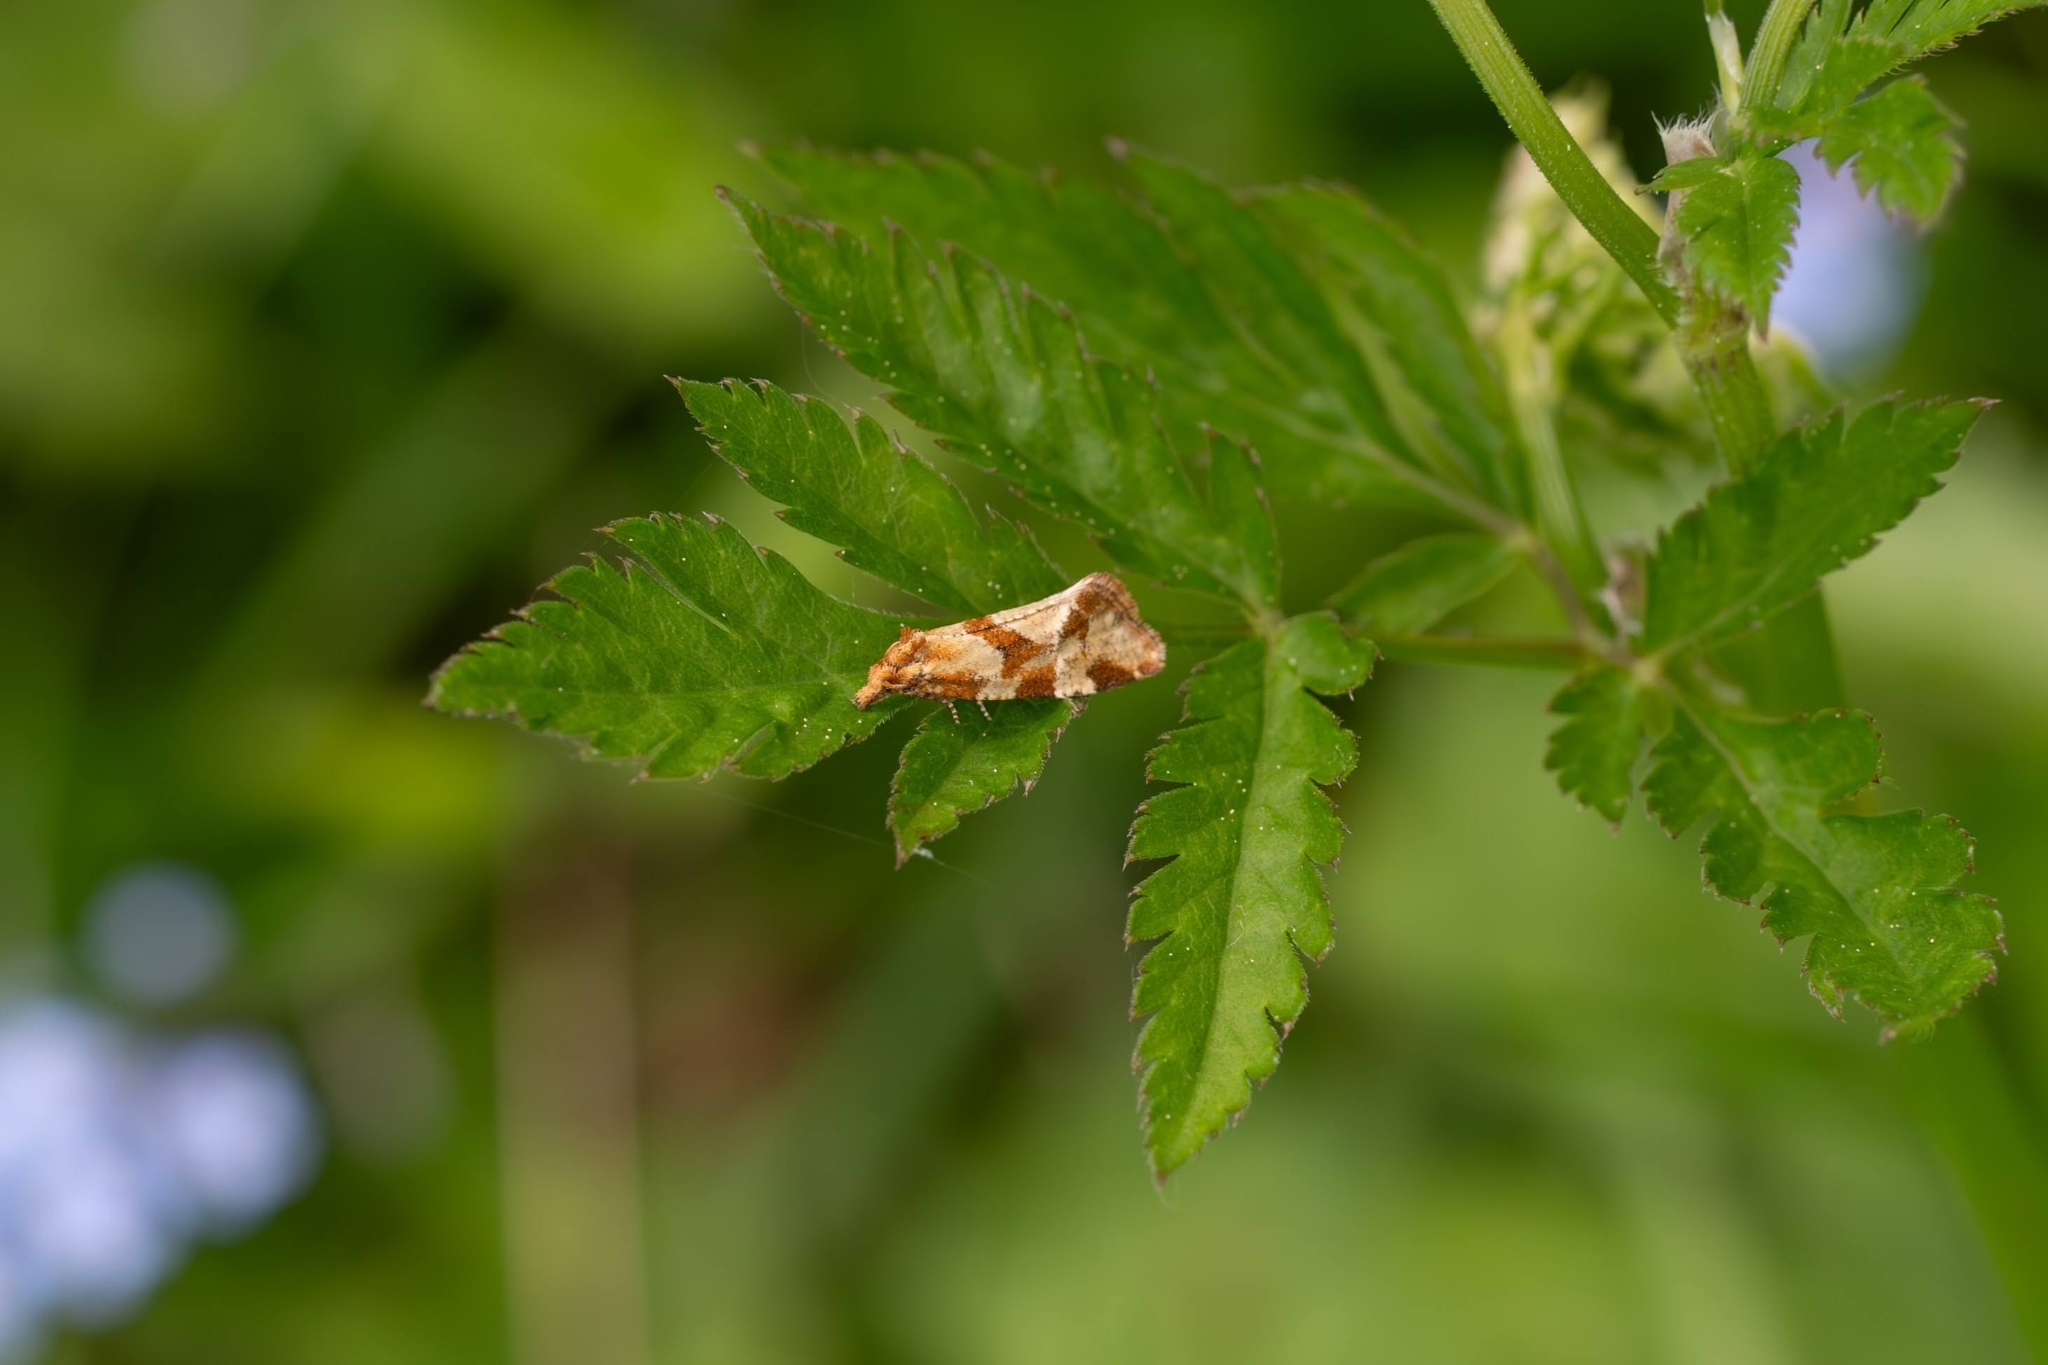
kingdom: Animalia
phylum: Arthropoda
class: Insecta
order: Lepidoptera
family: Tortricidae
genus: Aethes
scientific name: Aethes hartmanniana
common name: Scabious conch
